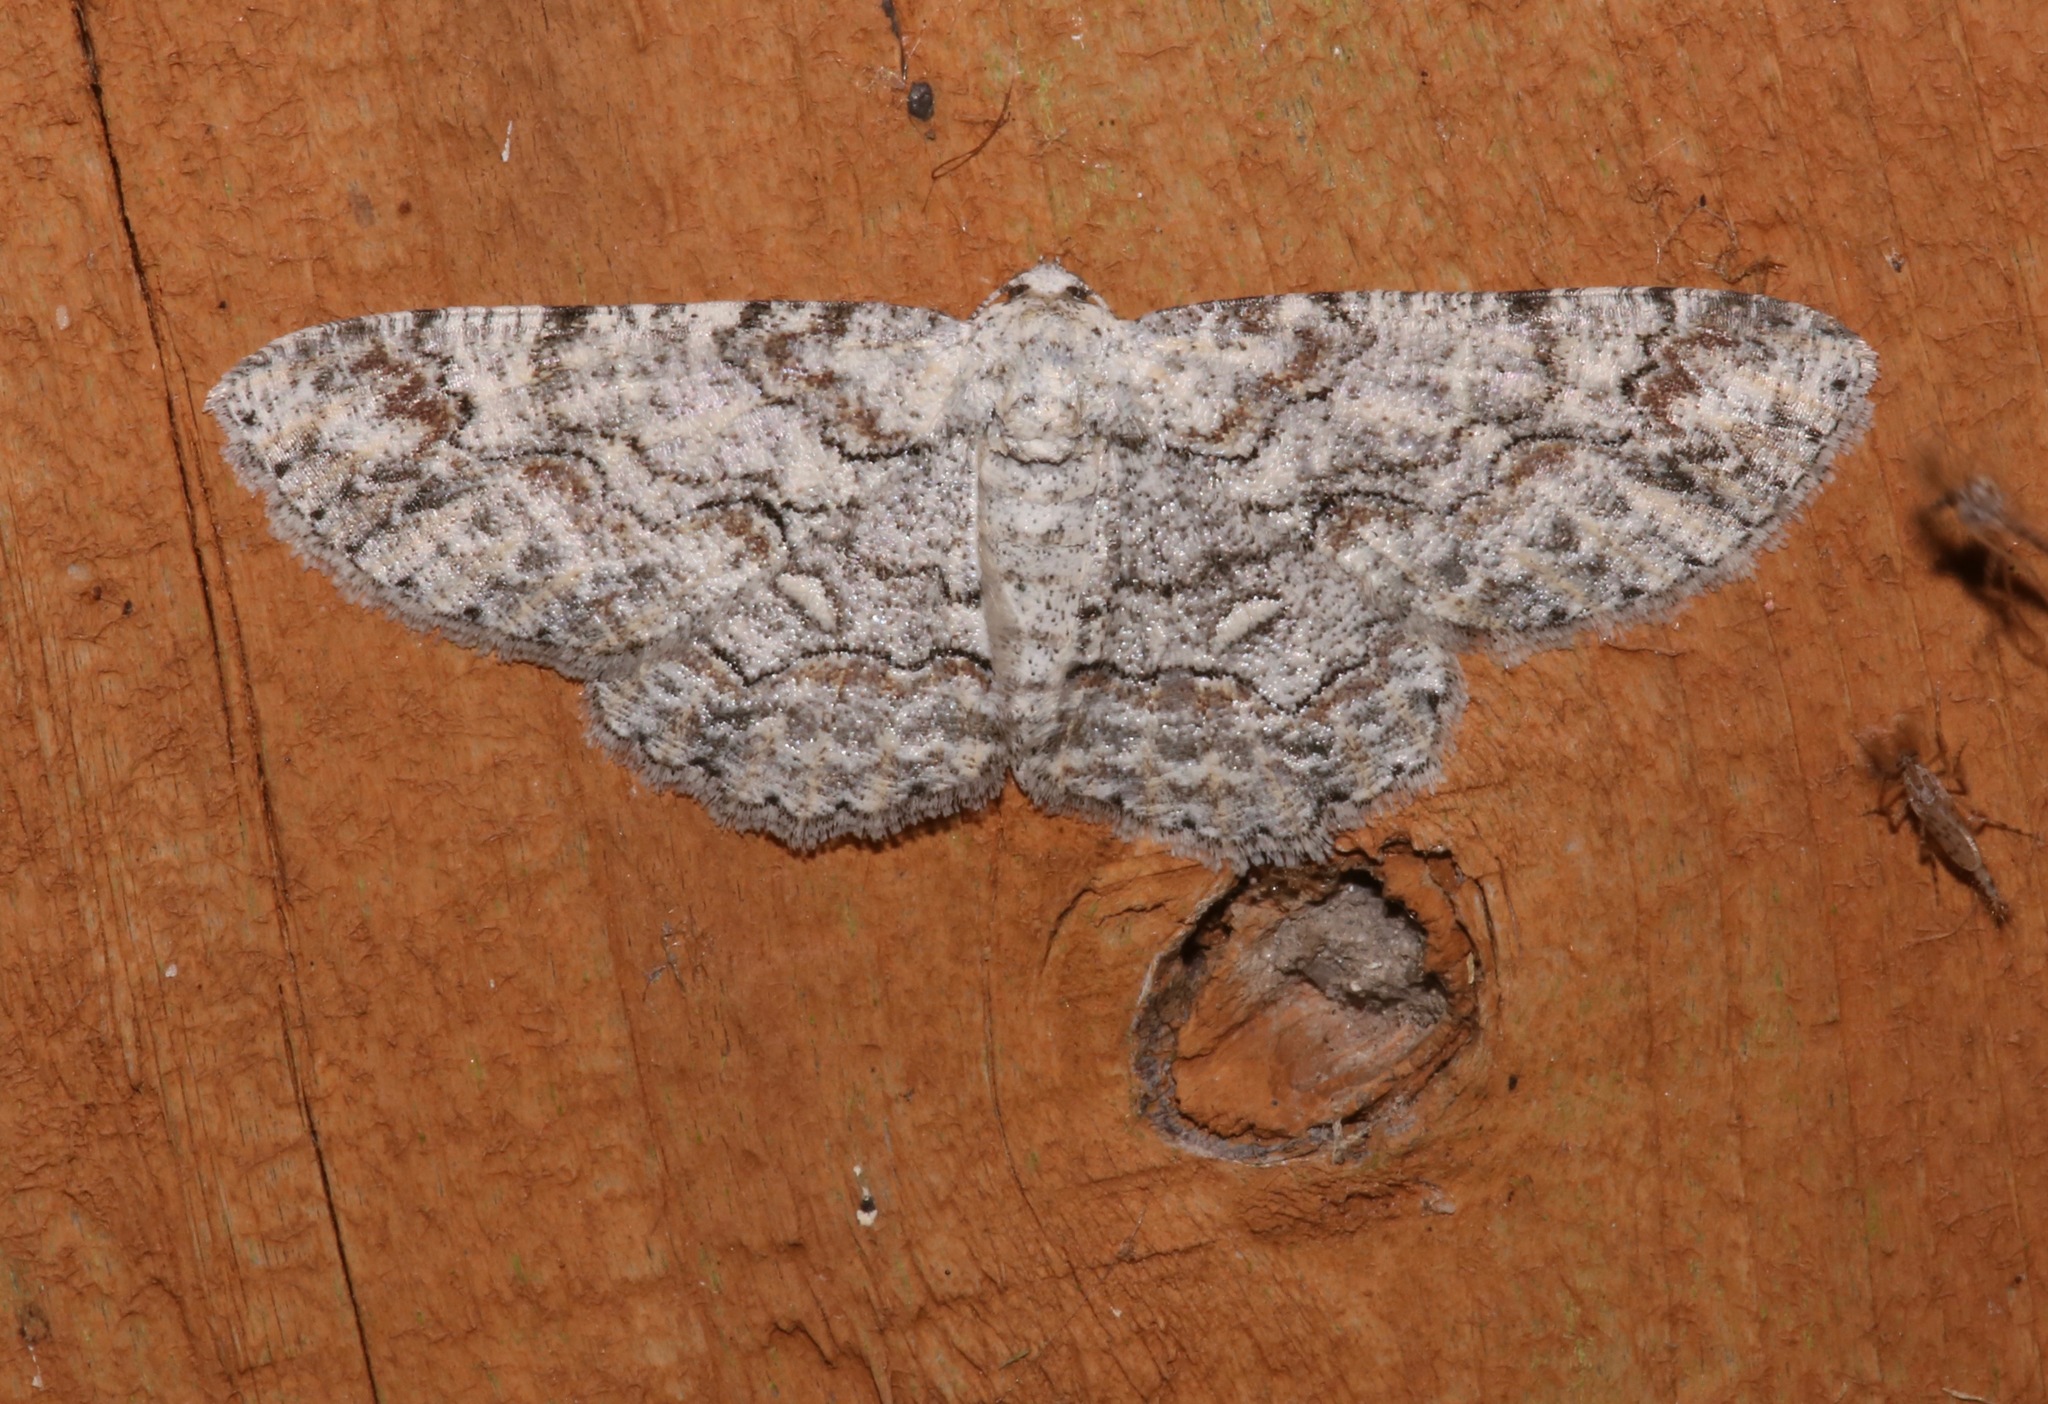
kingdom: Animalia
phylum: Arthropoda
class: Insecta
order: Lepidoptera
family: Geometridae
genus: Iridopsis
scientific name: Iridopsis defectaria
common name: Brown-shaded gray
